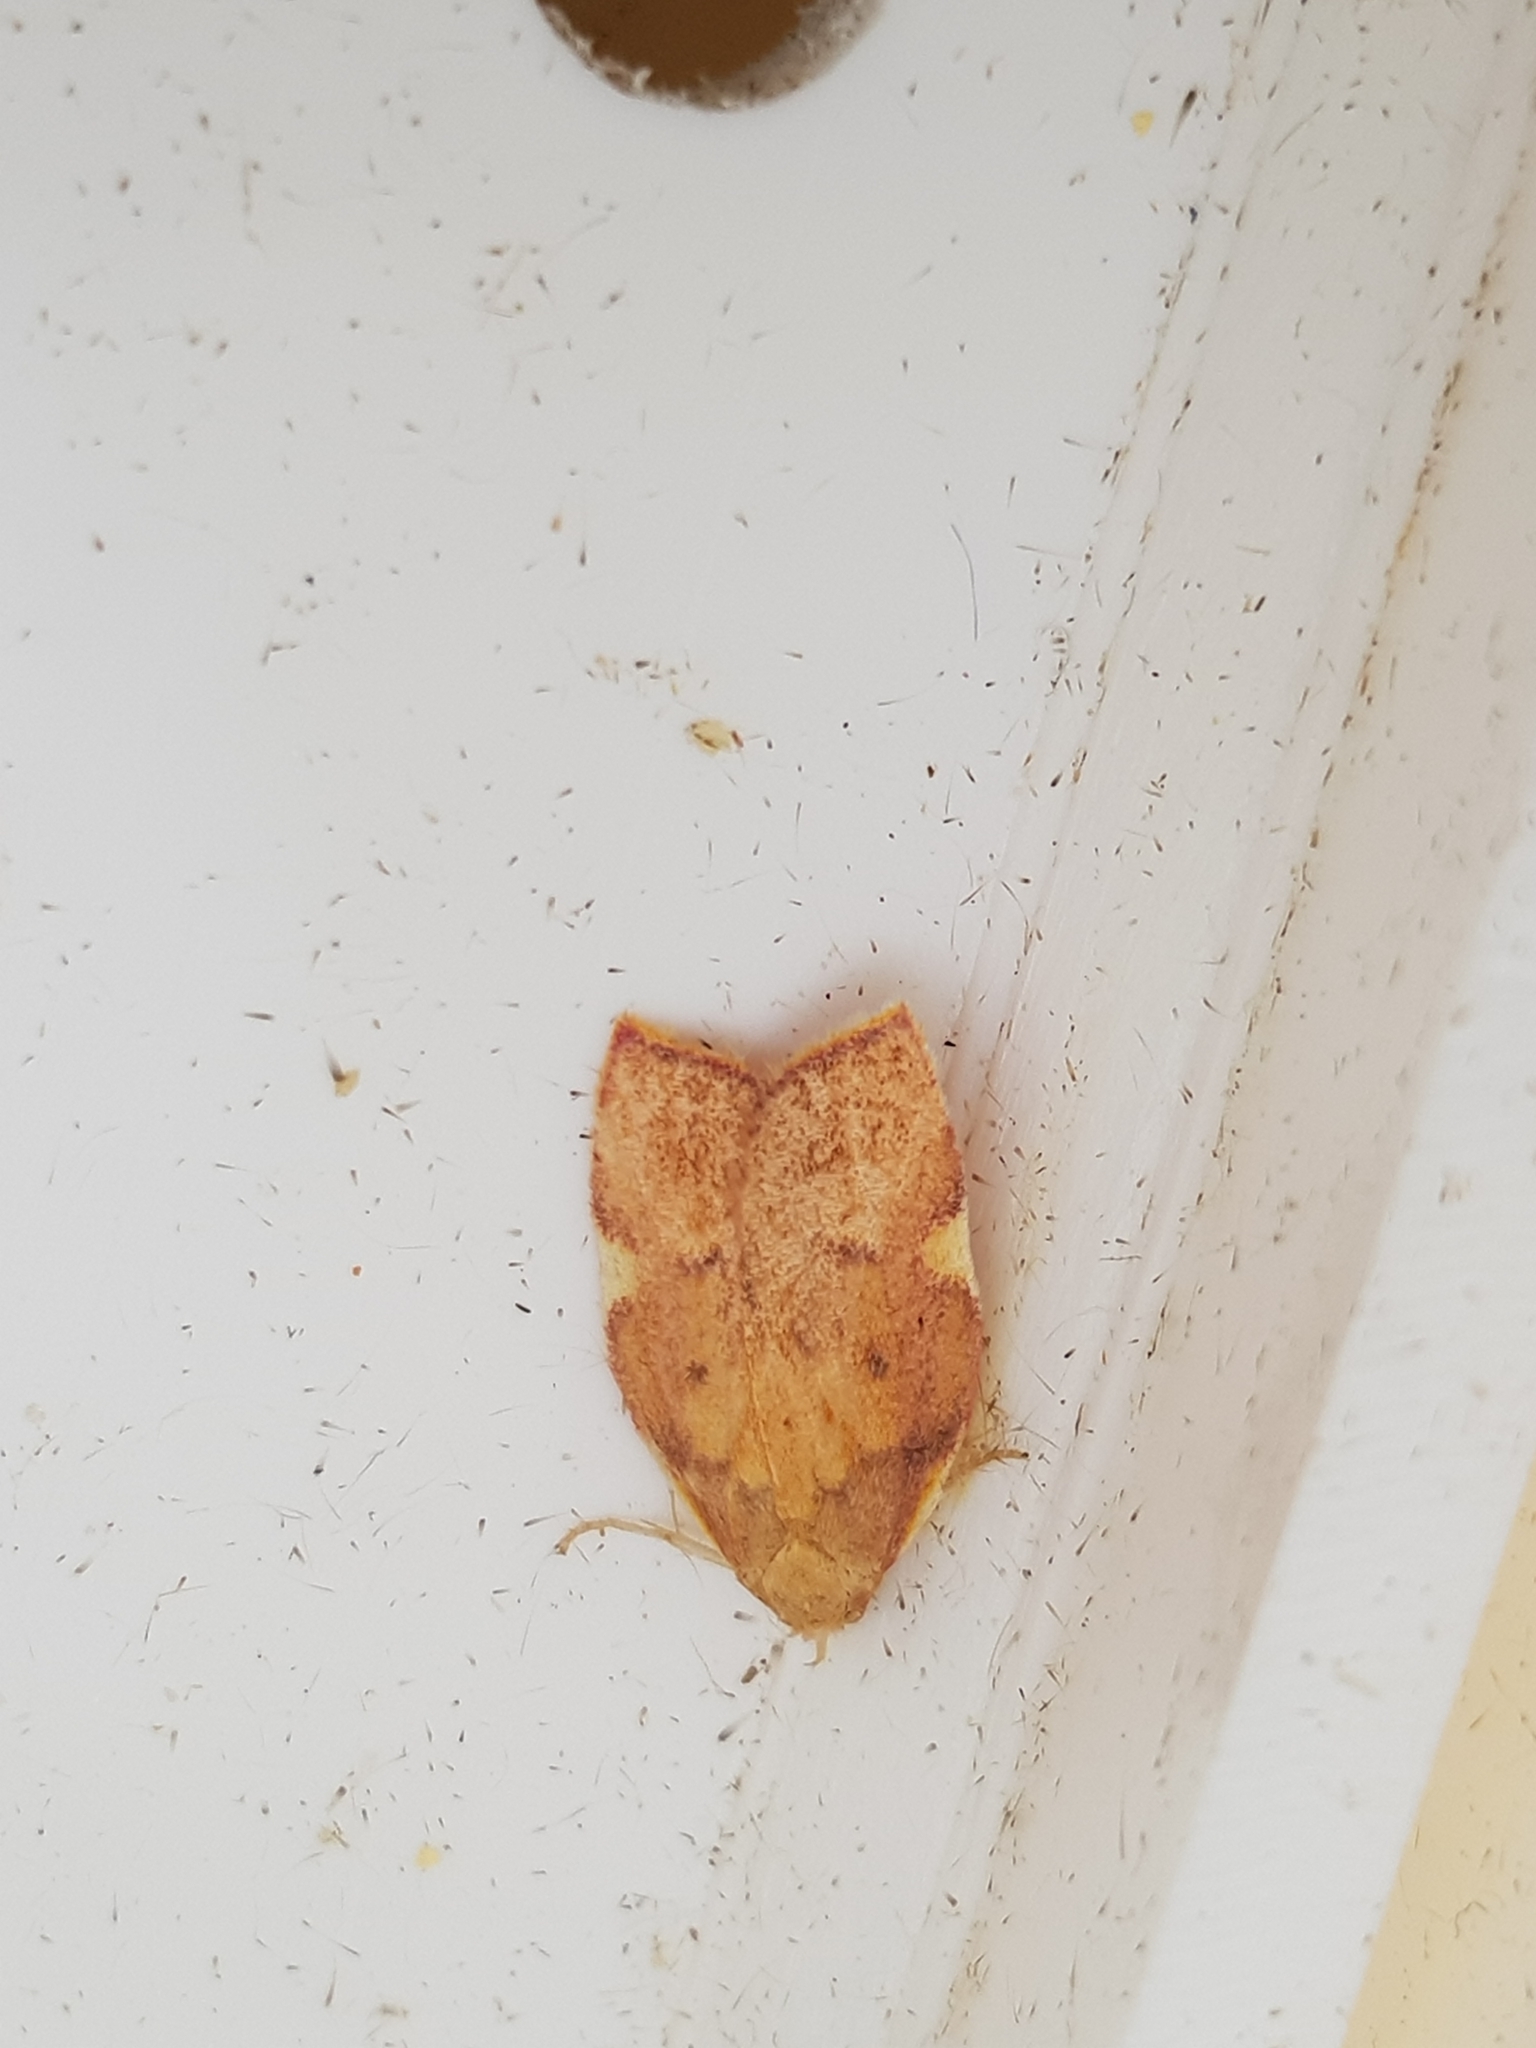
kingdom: Animalia
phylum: Arthropoda
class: Insecta
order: Lepidoptera
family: Peleopodidae
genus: Carcina
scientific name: Carcina quercana
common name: Moth
